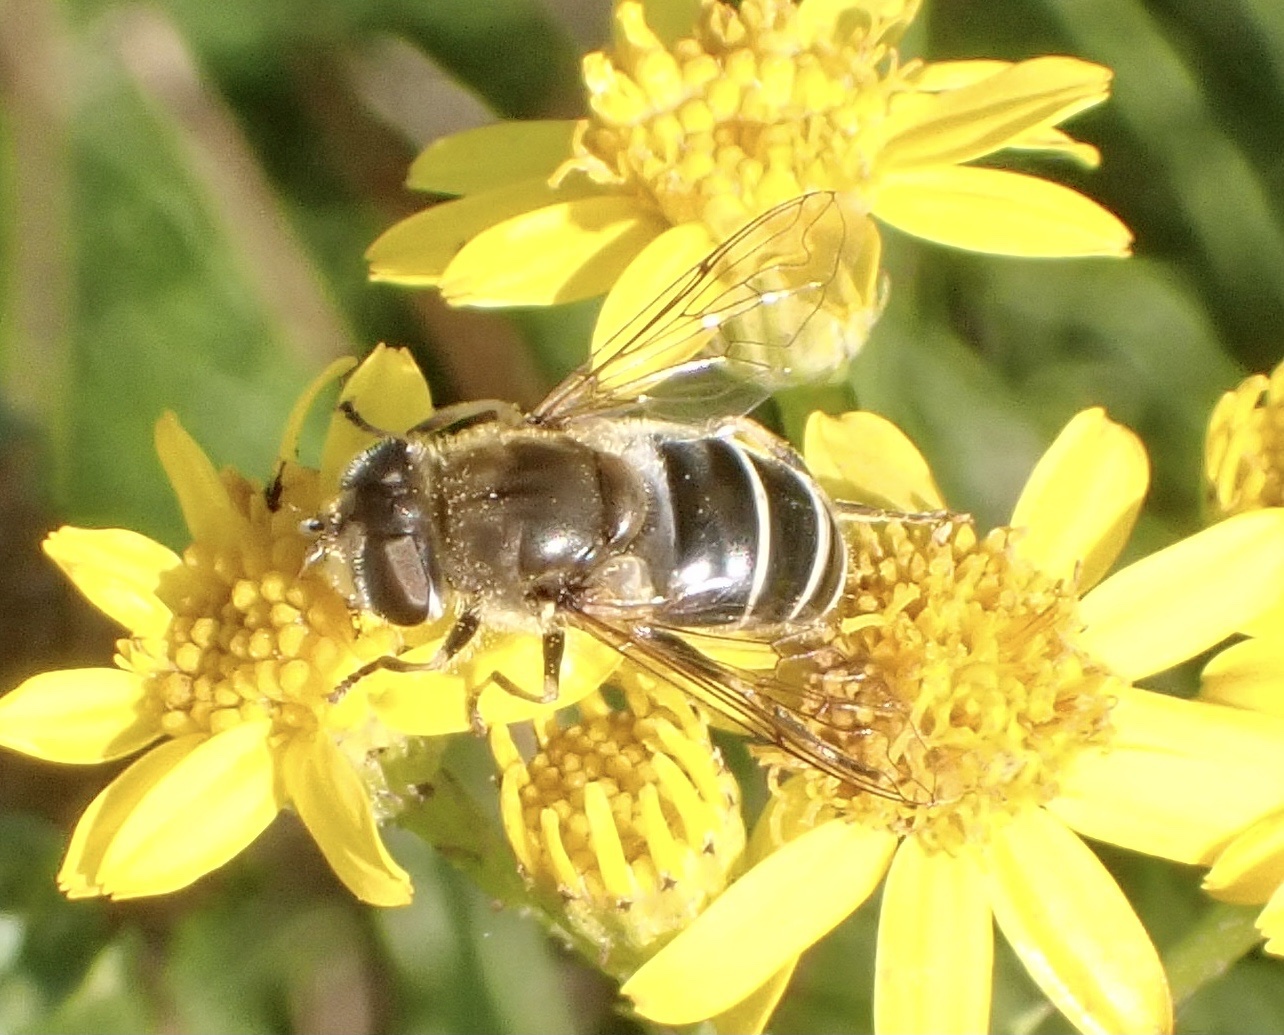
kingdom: Animalia
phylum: Arthropoda
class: Insecta
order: Diptera
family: Syrphidae
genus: Eristalis
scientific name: Eristalis nemorum
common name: Orange-spined drone fly
